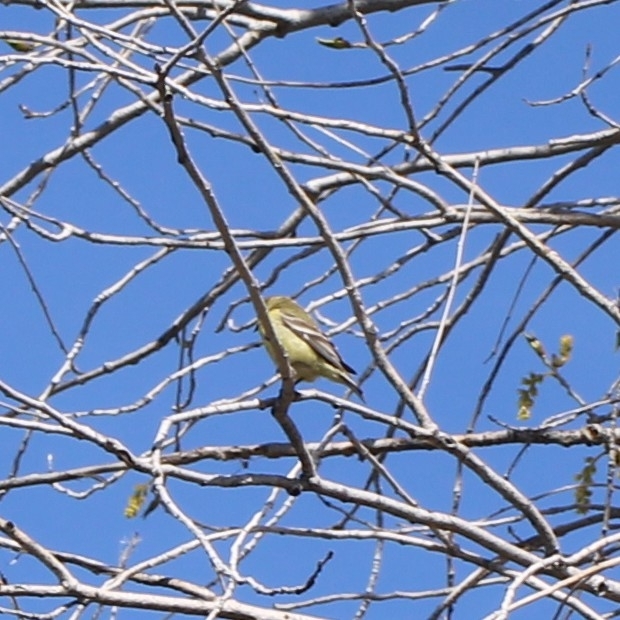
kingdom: Animalia
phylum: Chordata
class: Aves
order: Passeriformes
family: Fringillidae
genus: Spinus
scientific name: Spinus psaltria
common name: Lesser goldfinch
